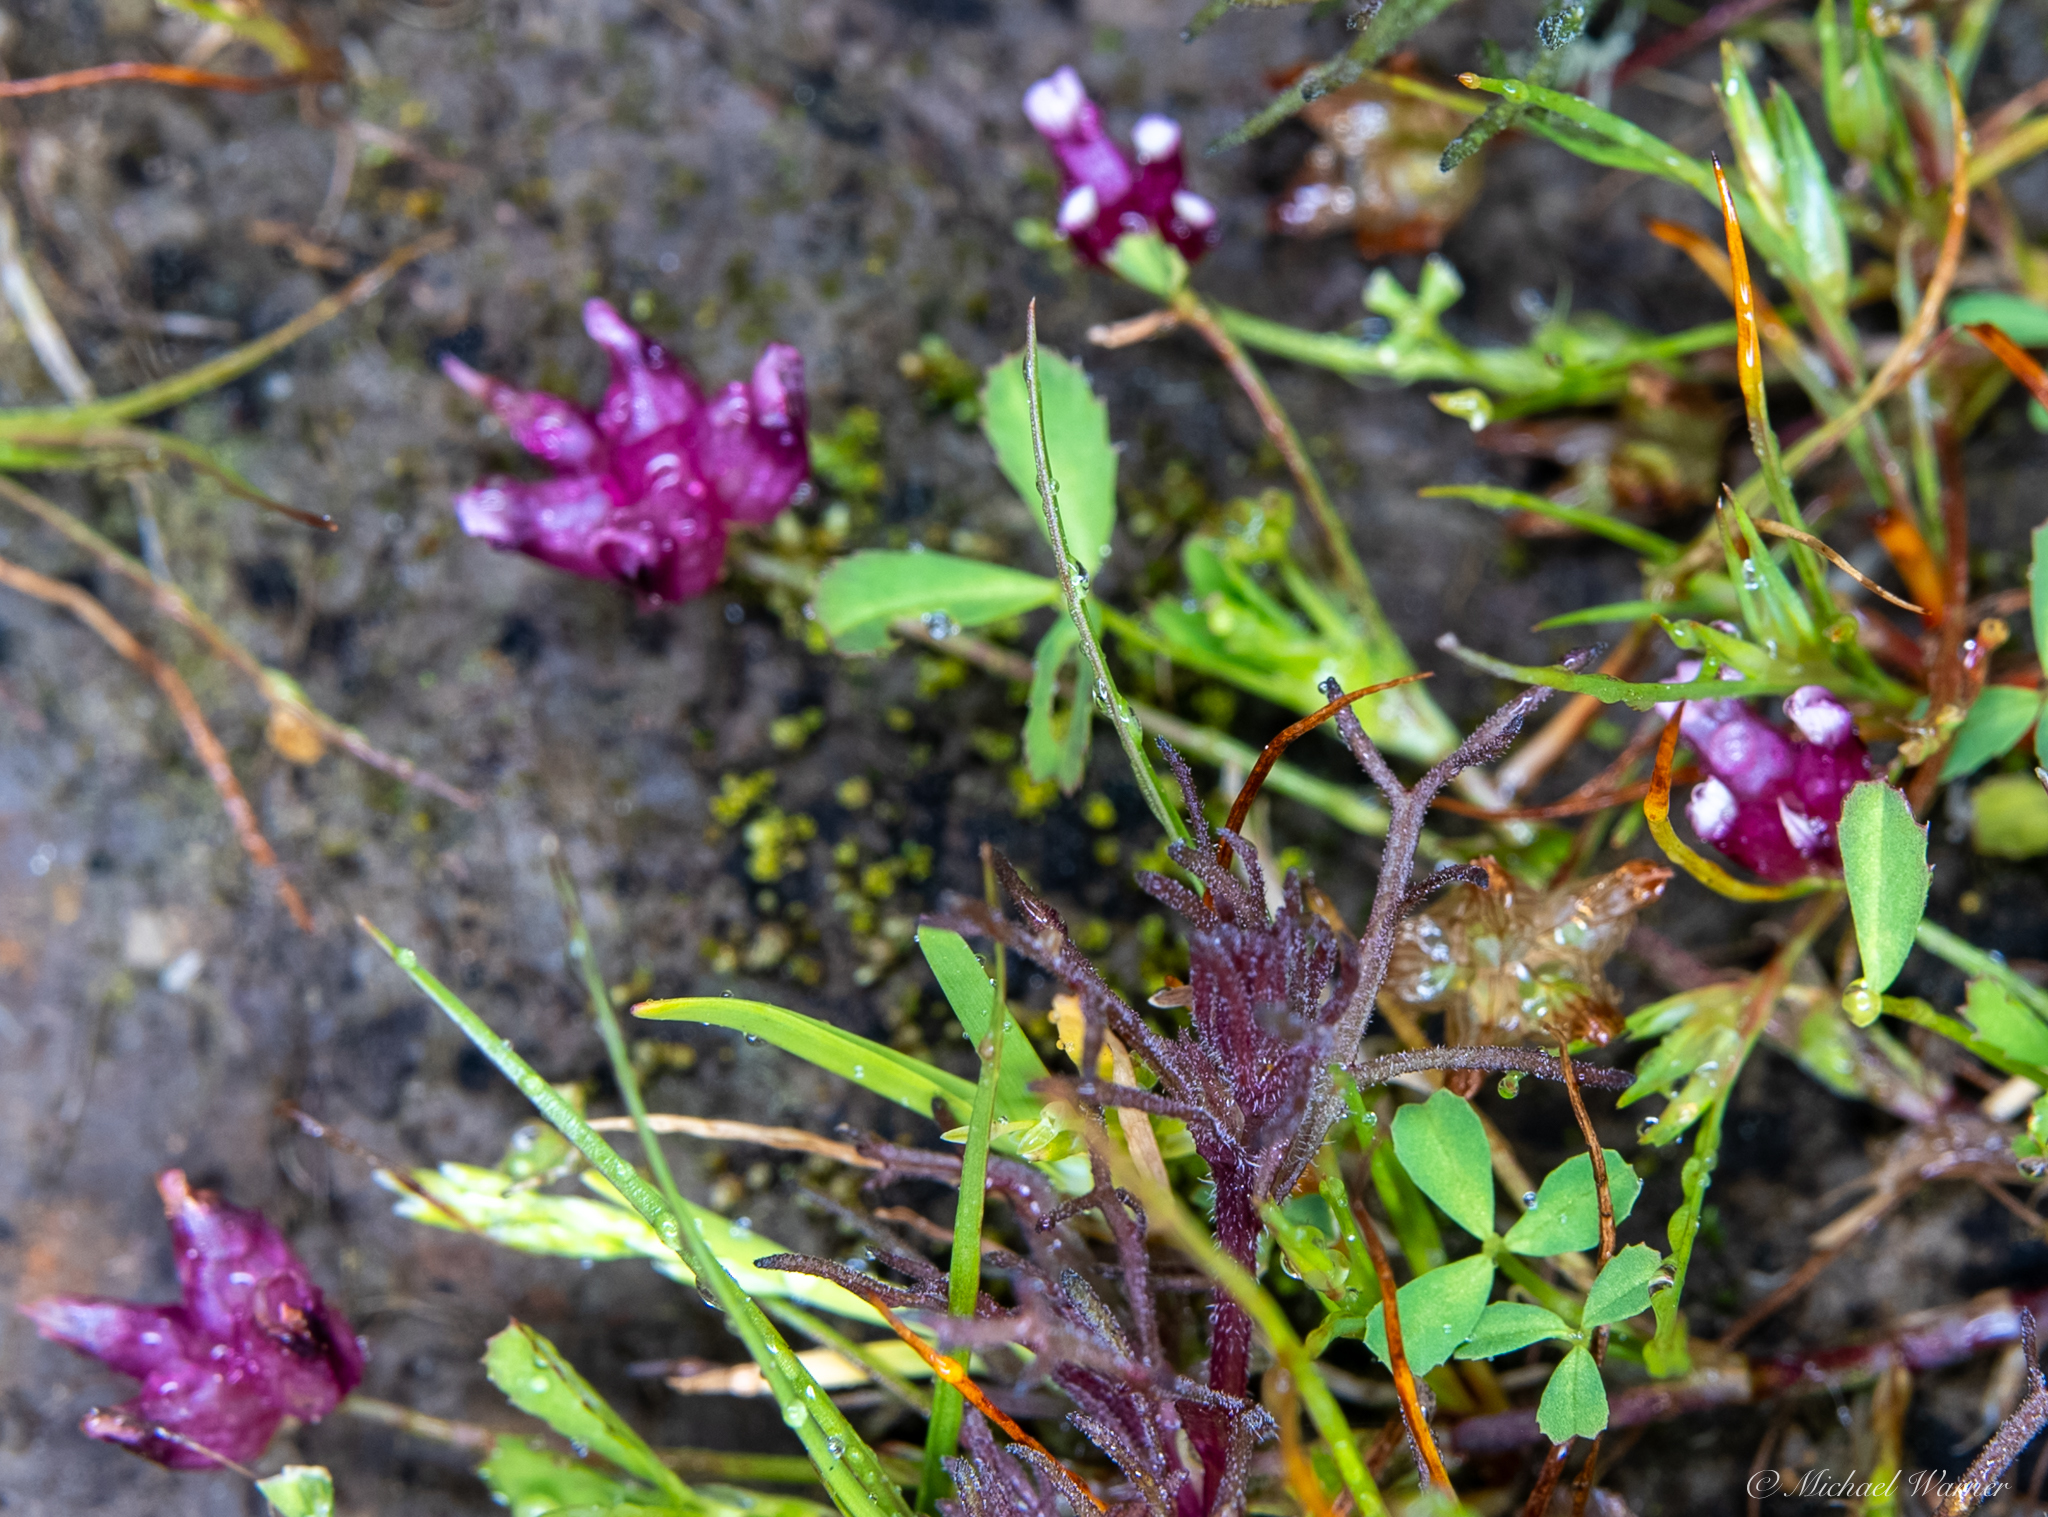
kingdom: Plantae
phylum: Tracheophyta
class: Magnoliopsida
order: Fabales
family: Fabaceae
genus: Trifolium
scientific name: Trifolium depauperatum
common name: Poverty clover
